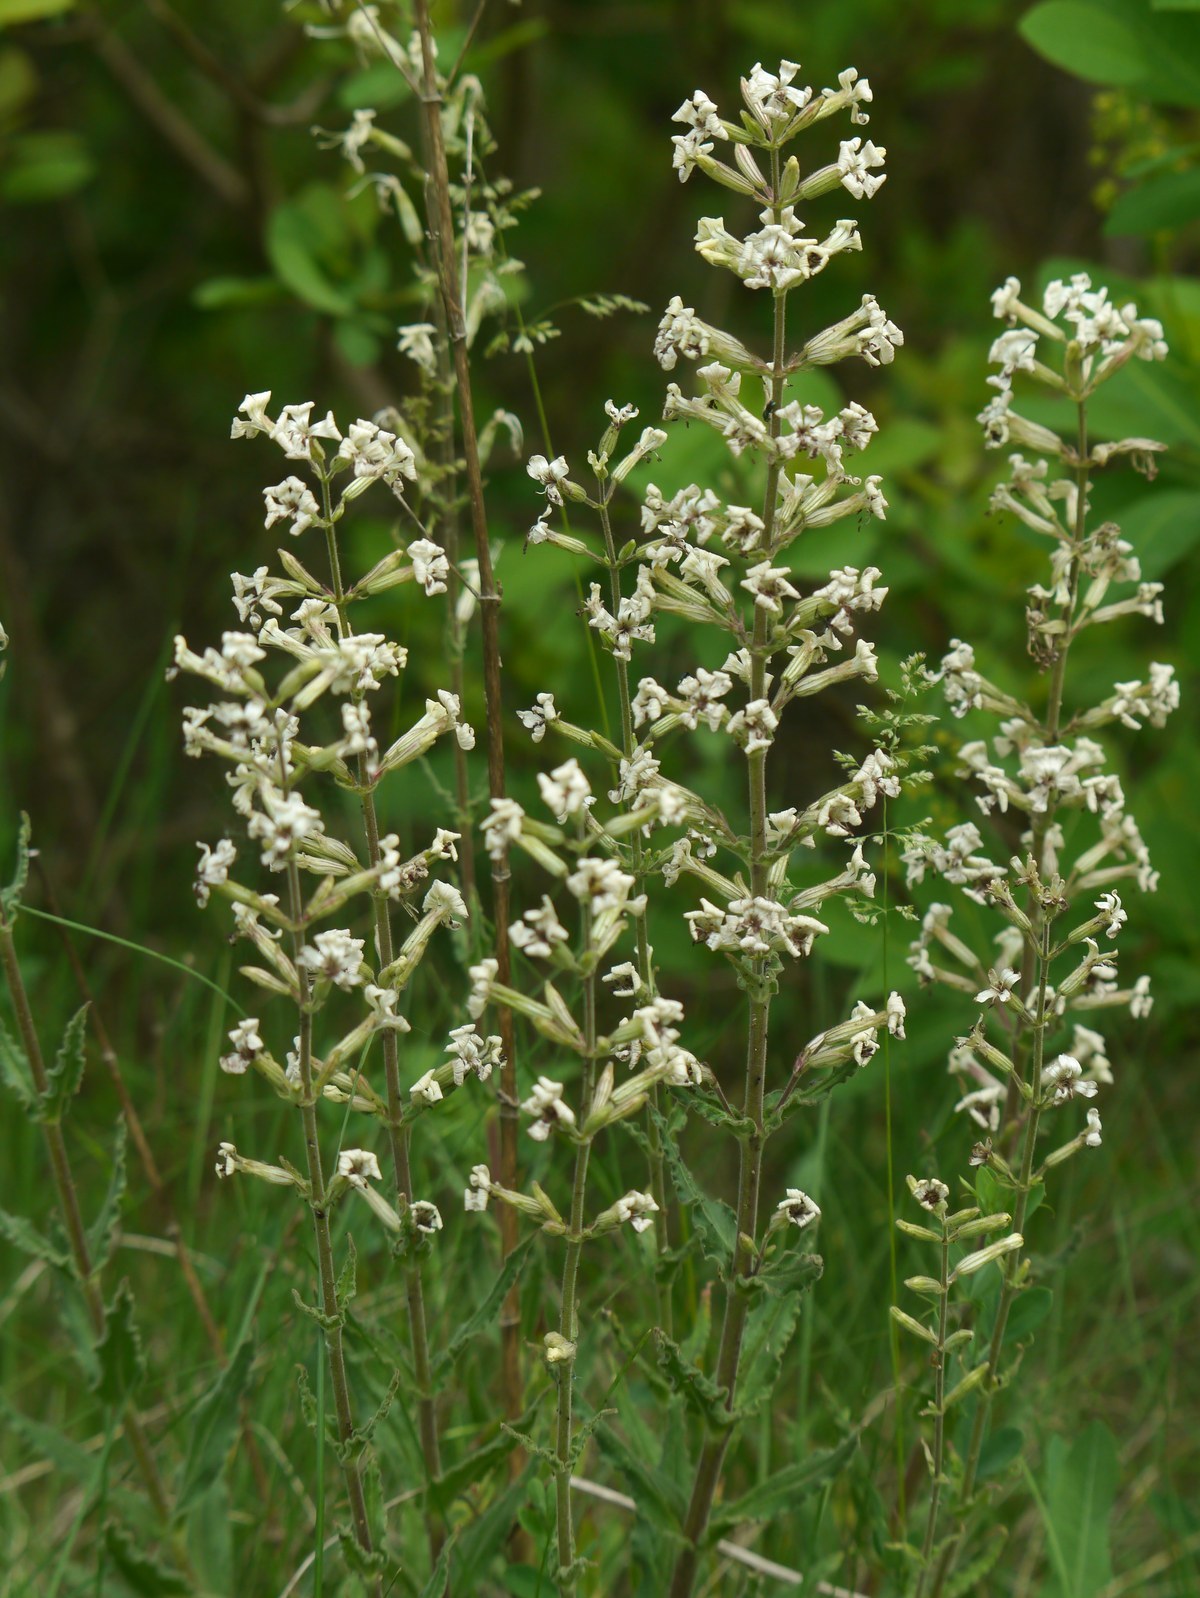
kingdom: Plantae
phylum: Tracheophyta
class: Magnoliopsida
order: Caryophyllales
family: Caryophyllaceae
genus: Silene
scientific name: Silene viscosa
